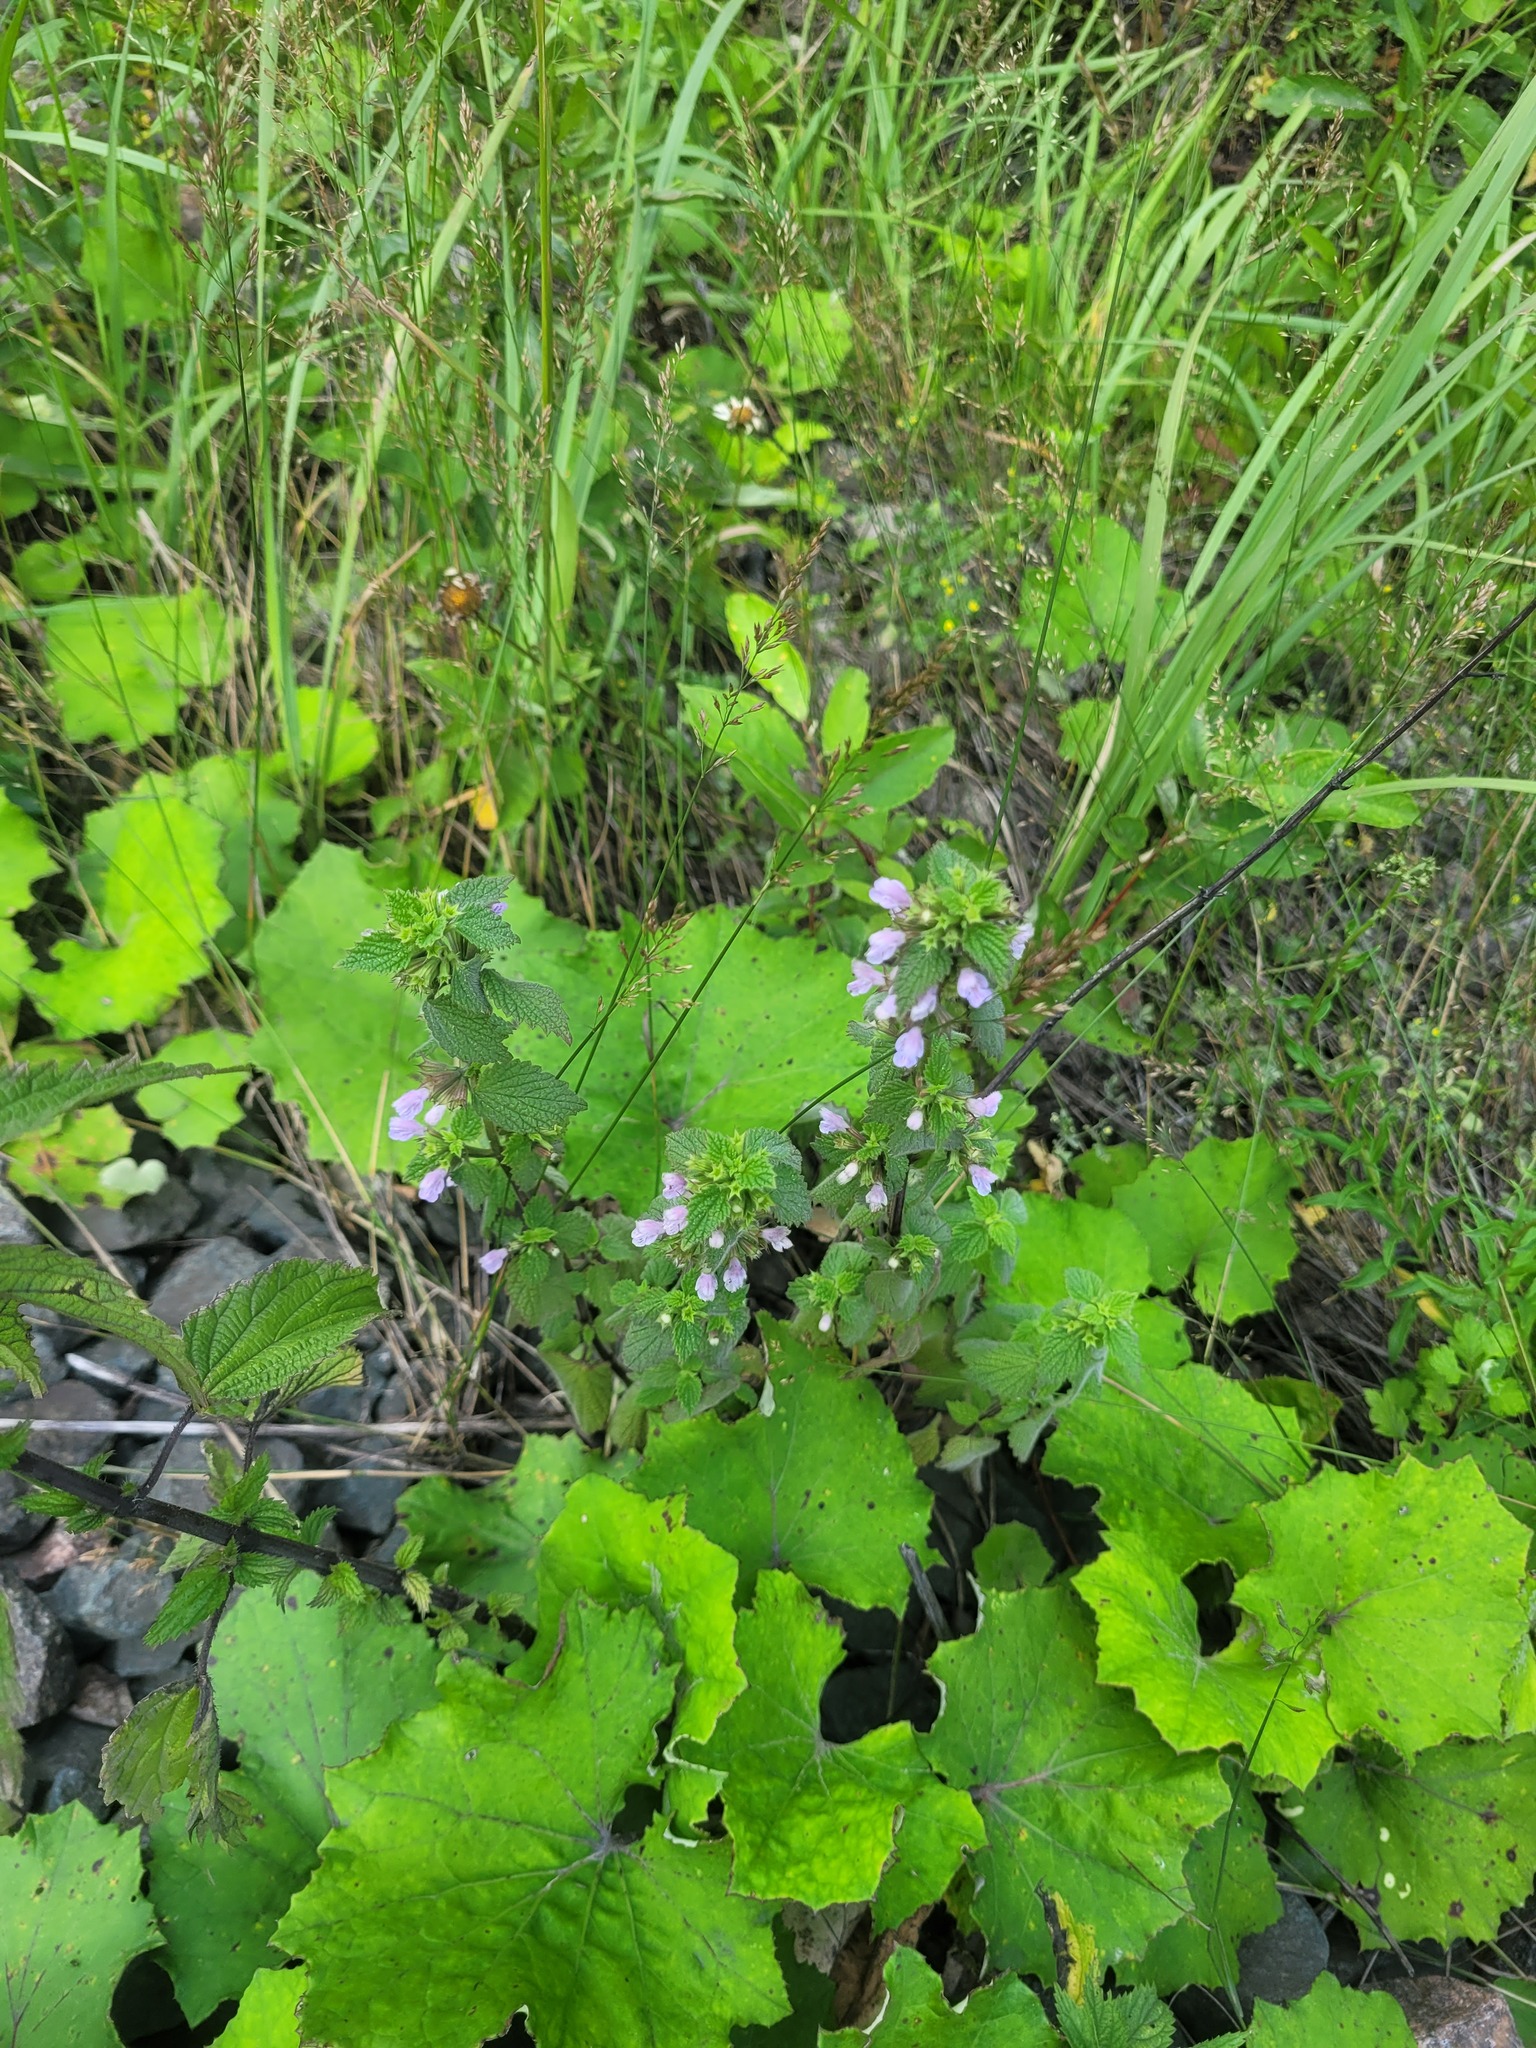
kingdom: Plantae
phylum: Tracheophyta
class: Magnoliopsida
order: Lamiales
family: Lamiaceae
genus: Ballota
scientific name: Ballota nigra
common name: Black horehound
